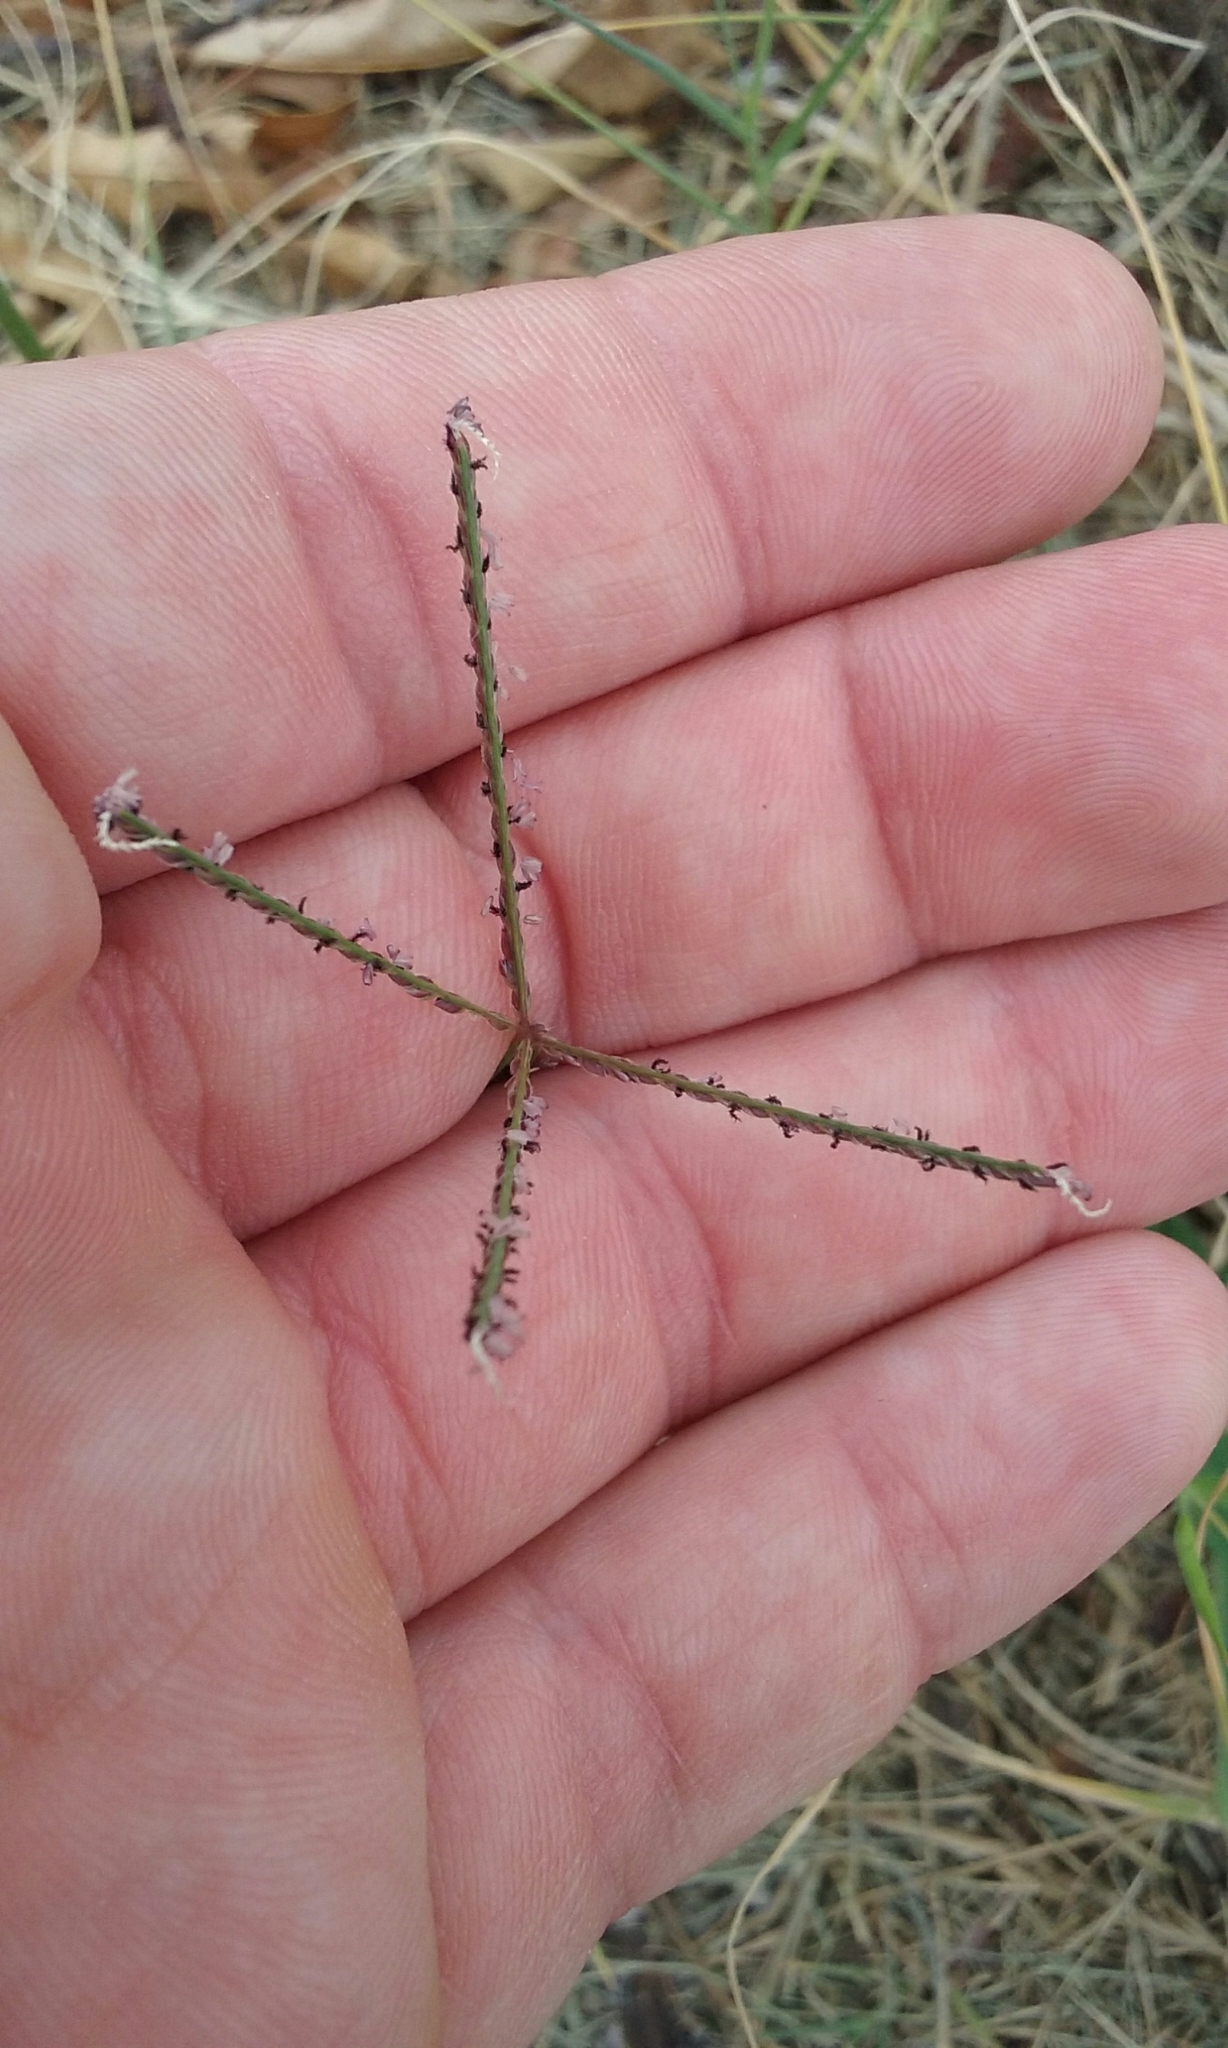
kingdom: Plantae
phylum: Tracheophyta
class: Liliopsida
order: Poales
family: Poaceae
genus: Cynodon
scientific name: Cynodon dactylon
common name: Bermuda grass
